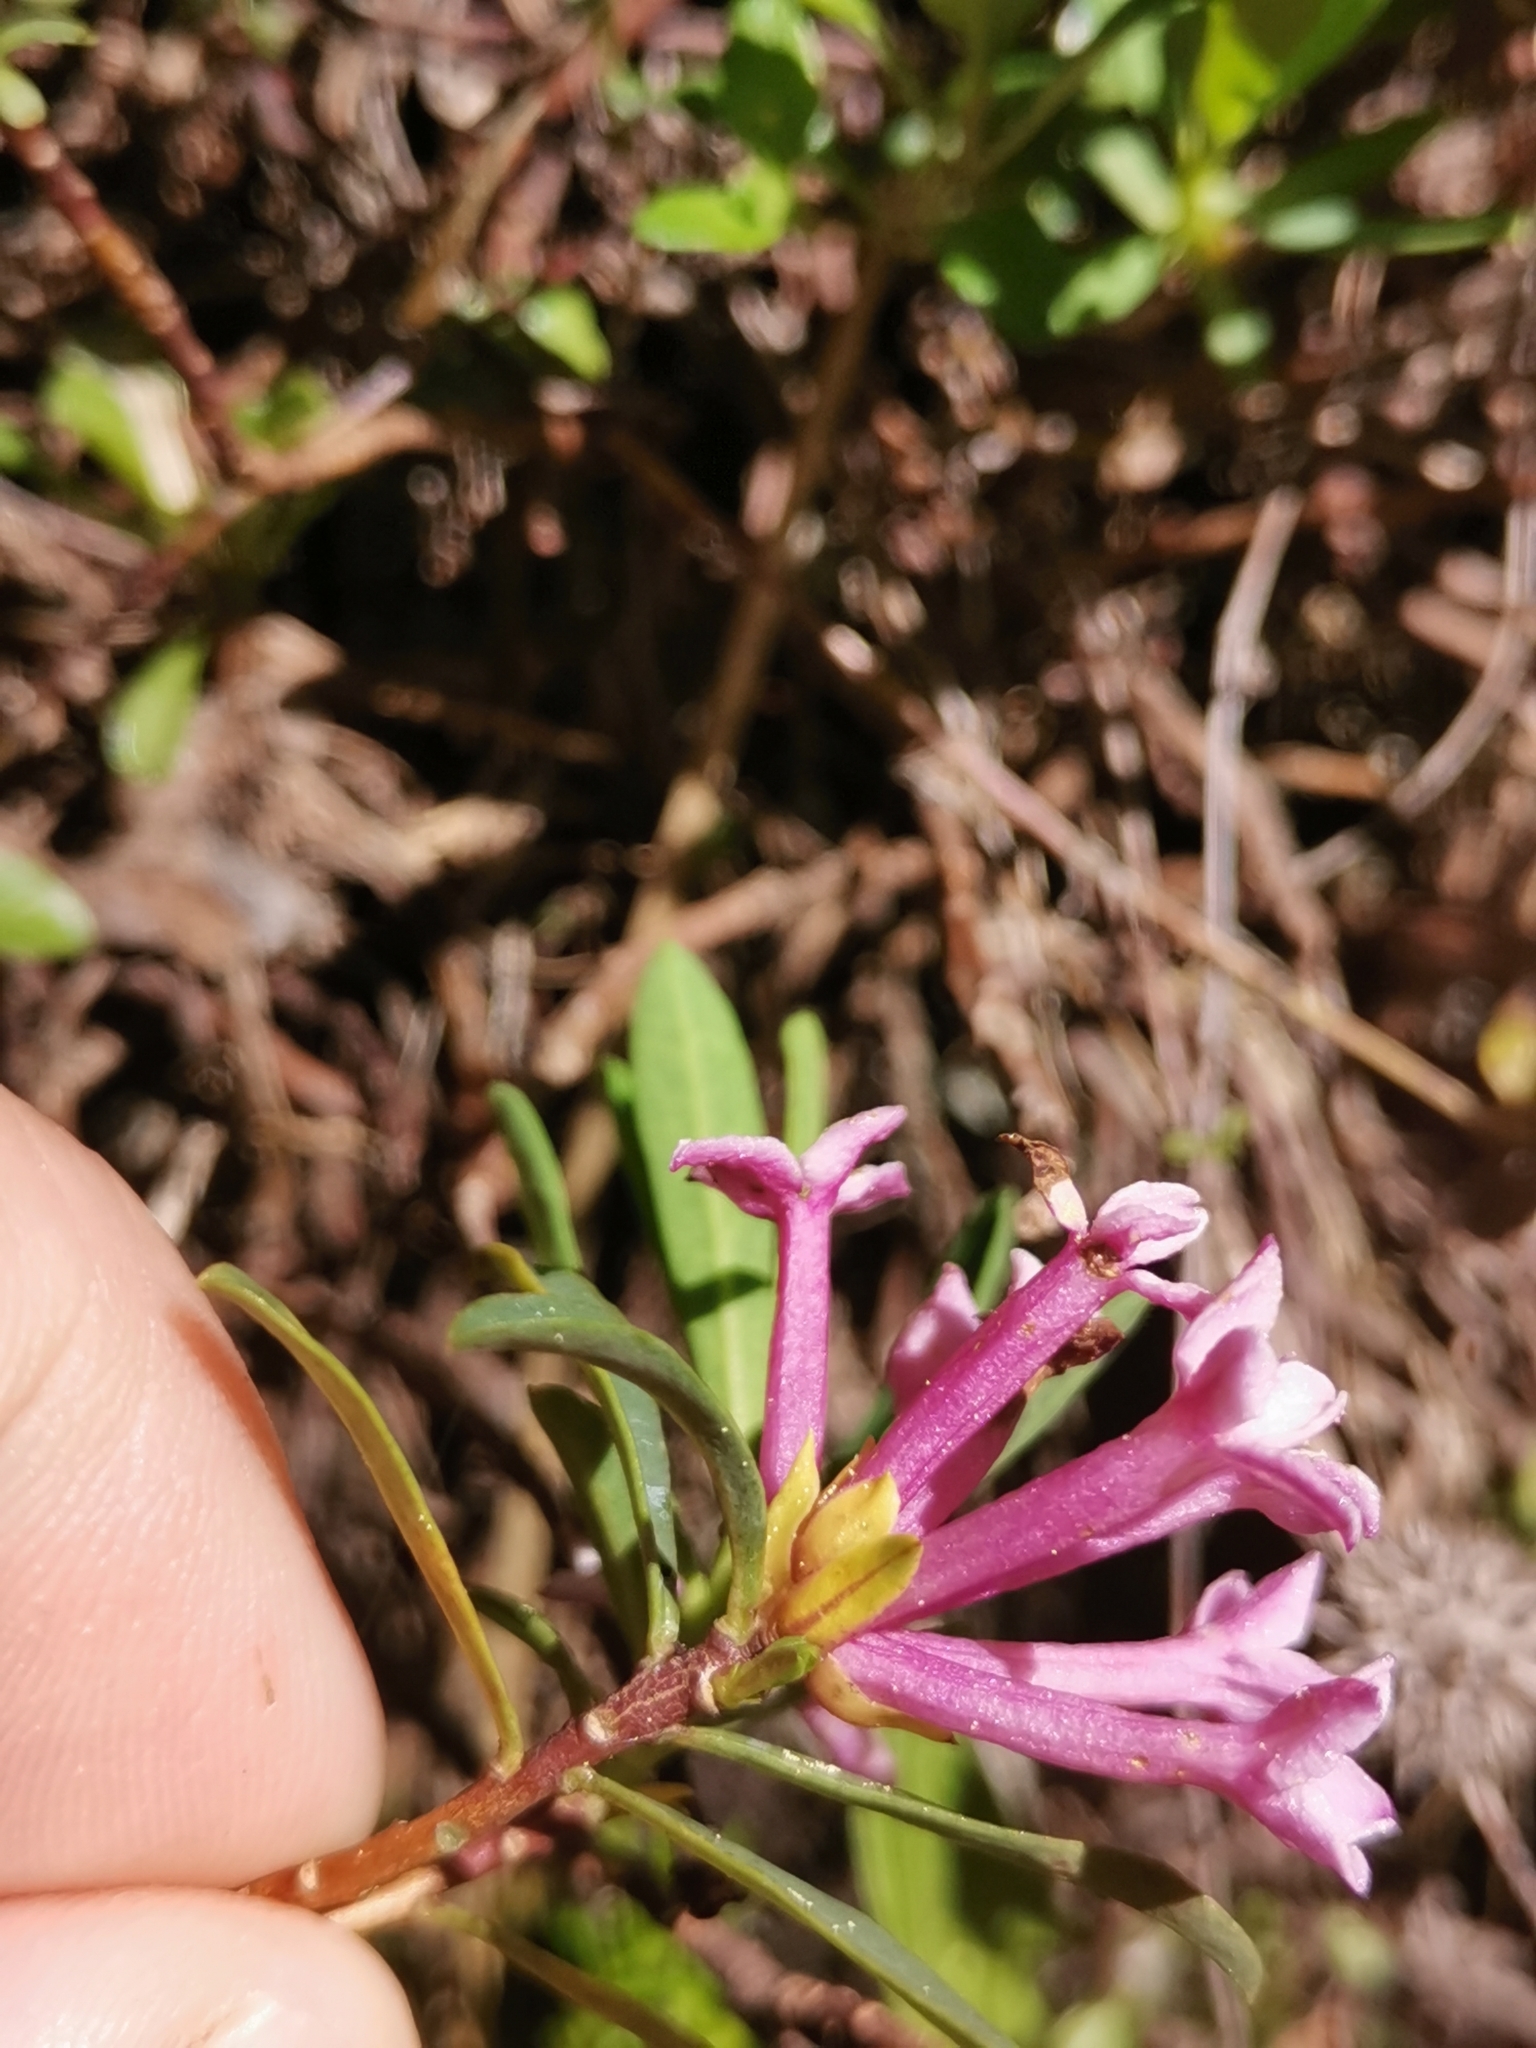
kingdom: Plantae
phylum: Tracheophyta
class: Magnoliopsida
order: Malvales
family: Thymelaeaceae
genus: Daphne
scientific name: Daphne striata
